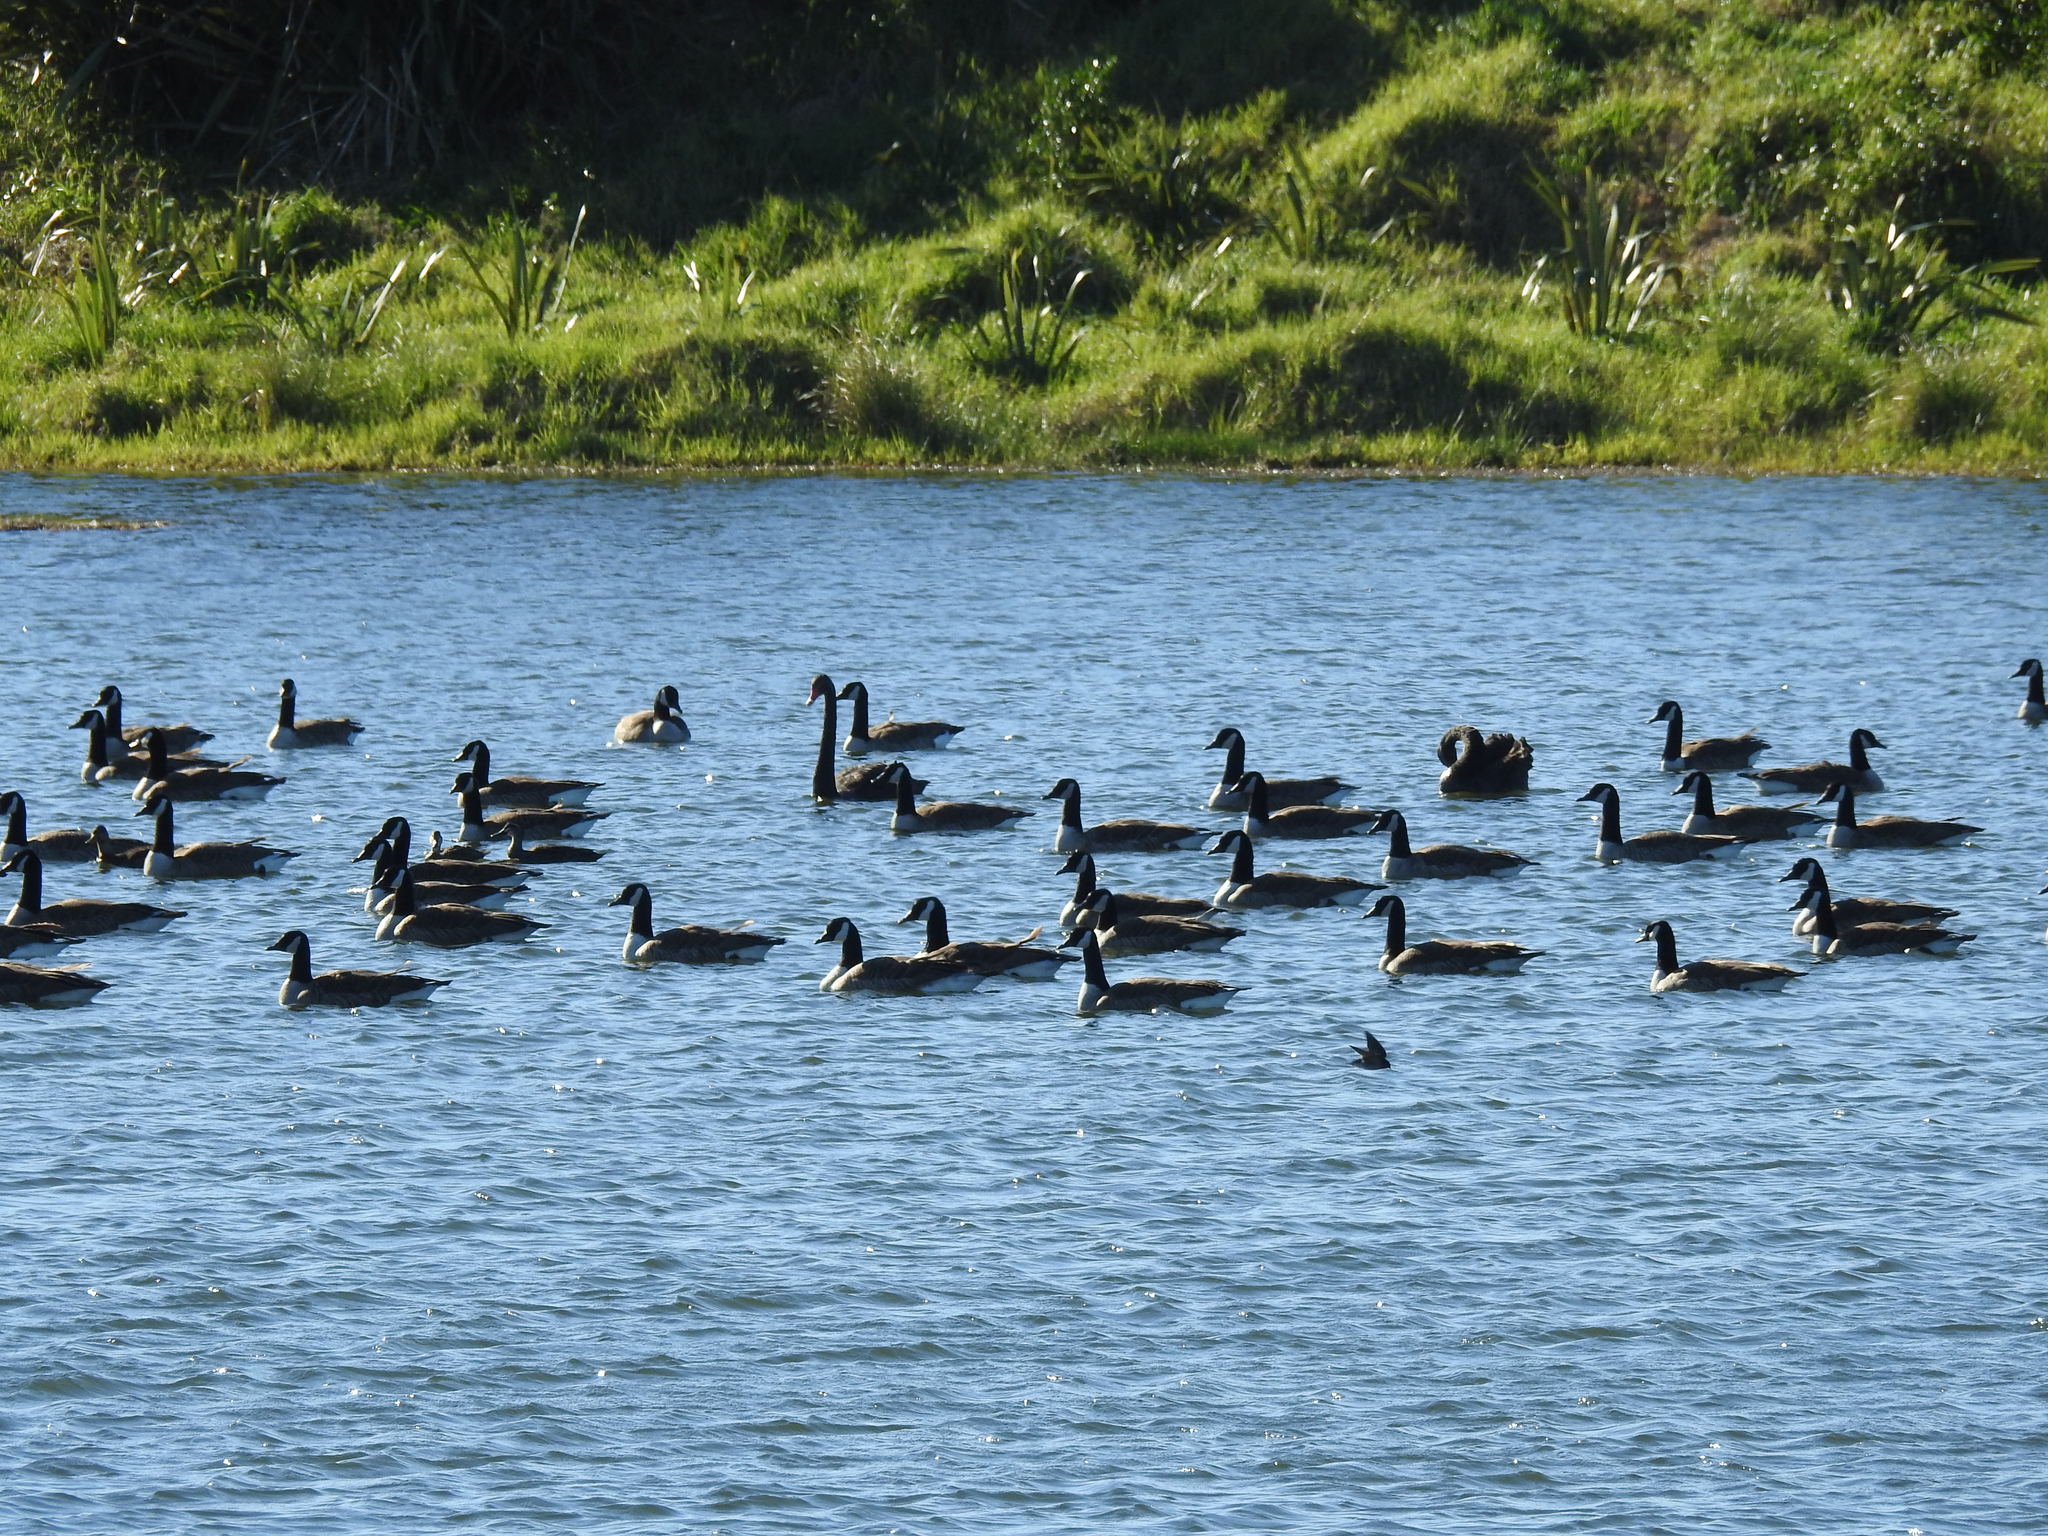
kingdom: Animalia
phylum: Chordata
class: Aves
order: Anseriformes
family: Anatidae
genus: Branta
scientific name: Branta canadensis
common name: Canada goose
